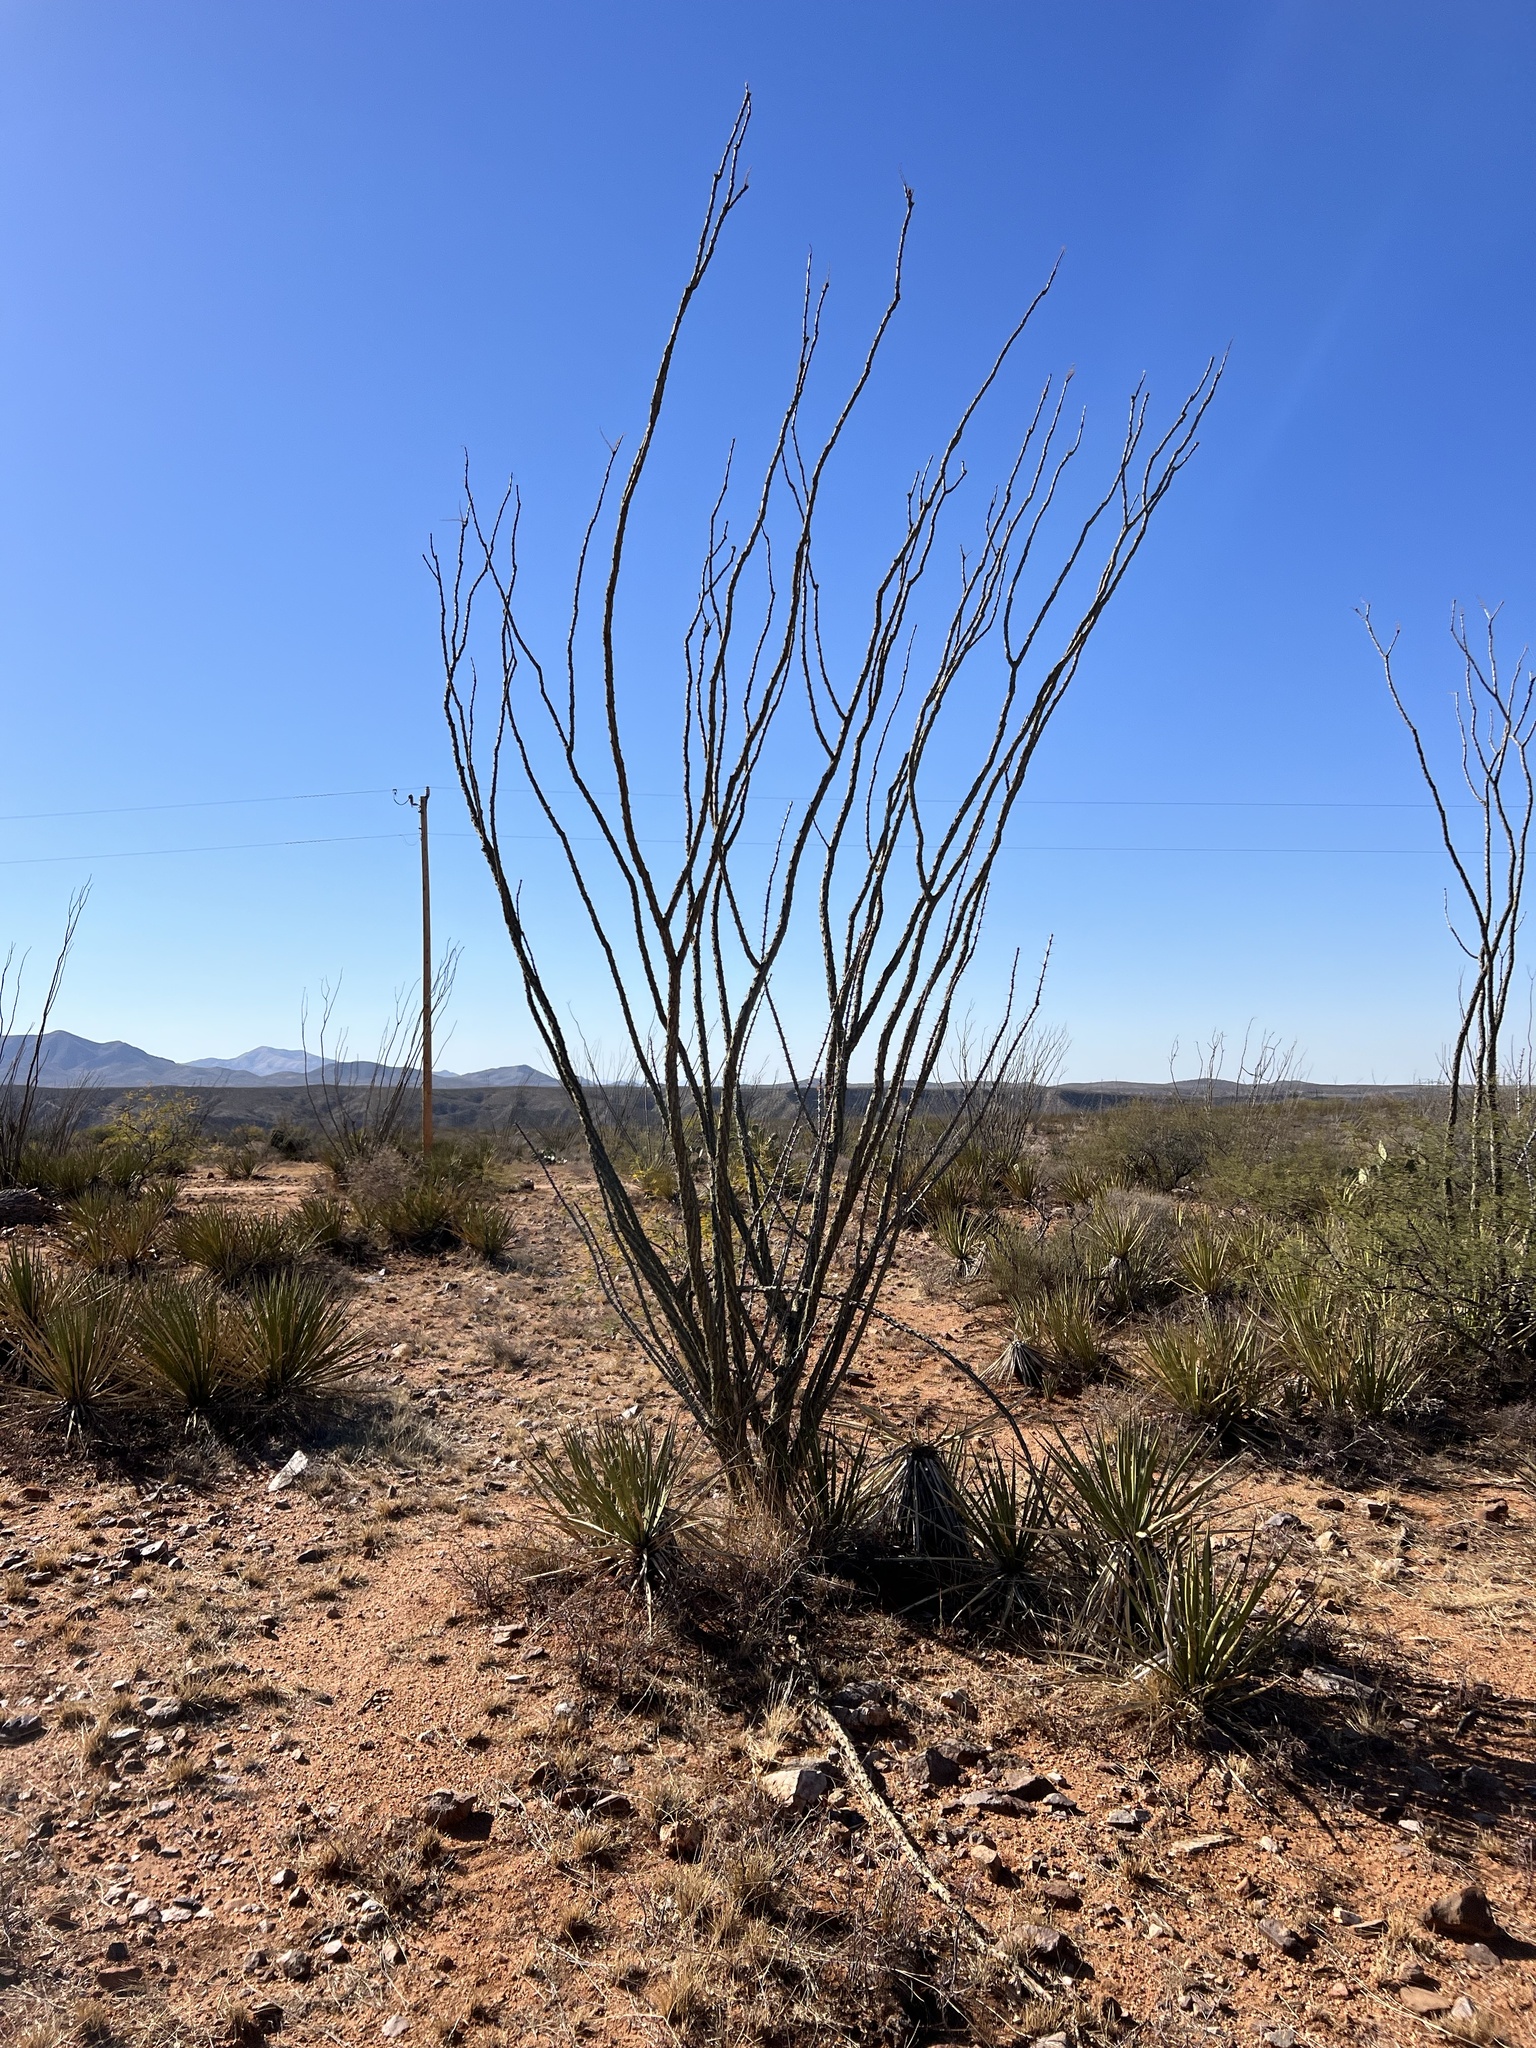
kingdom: Plantae
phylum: Tracheophyta
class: Magnoliopsida
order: Ericales
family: Fouquieriaceae
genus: Fouquieria
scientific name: Fouquieria splendens
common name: Vine-cactus
